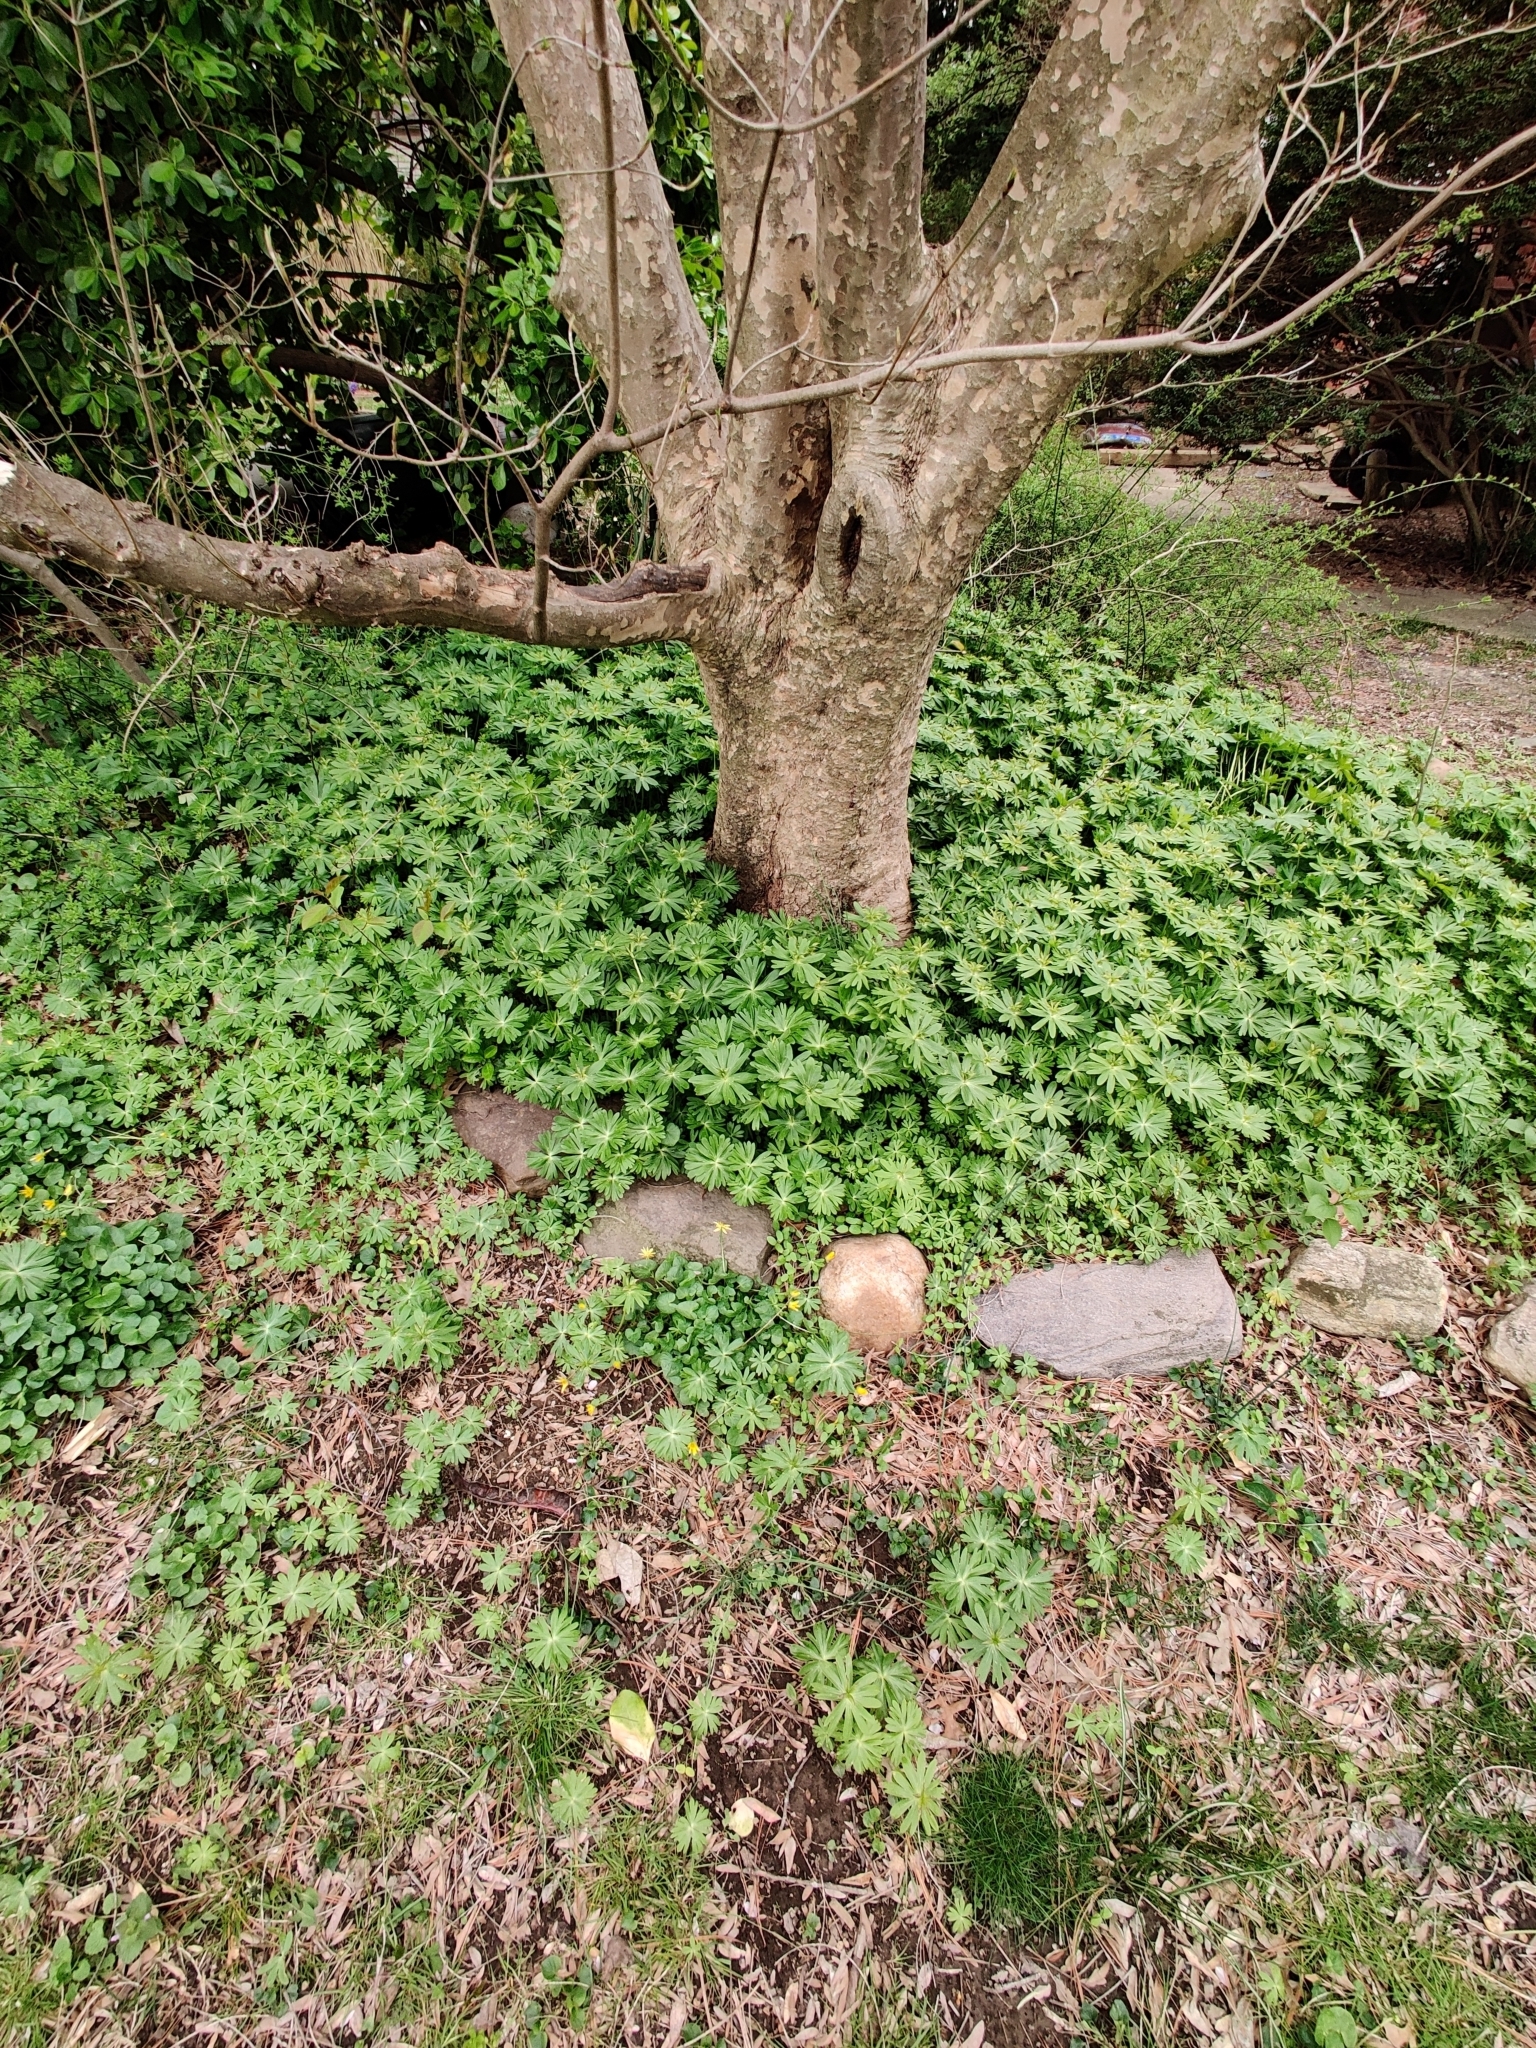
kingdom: Plantae
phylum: Tracheophyta
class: Magnoliopsida
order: Ranunculales
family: Ranunculaceae
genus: Eranthis
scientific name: Eranthis hyemalis
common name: Winter aconite
